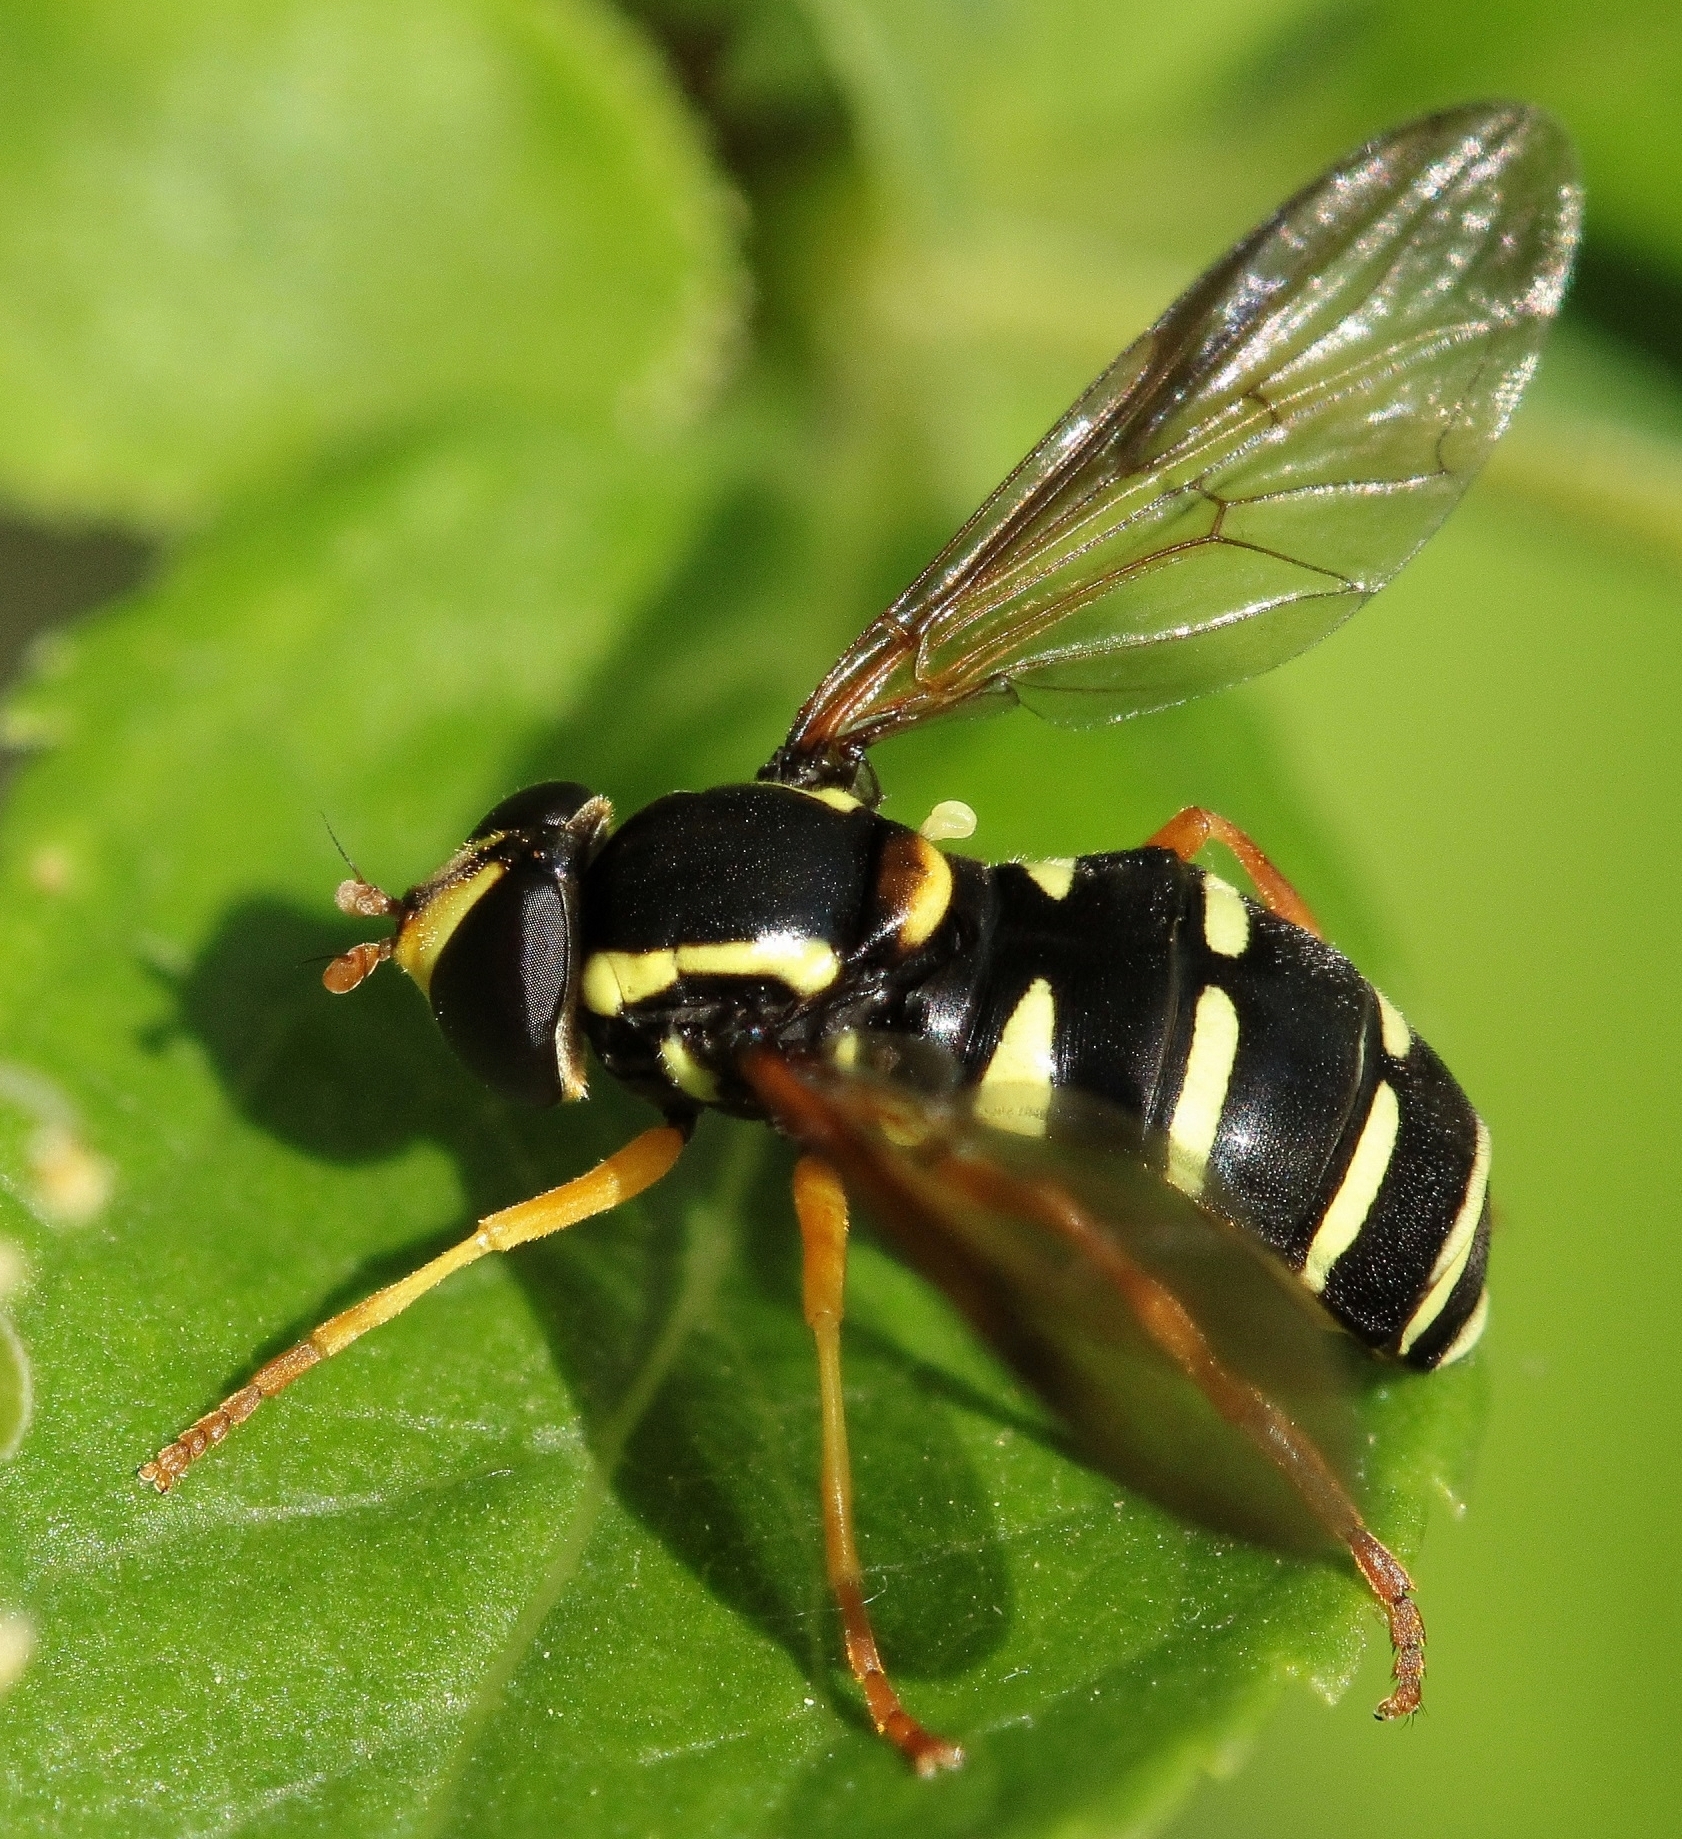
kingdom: Animalia
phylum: Arthropoda
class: Insecta
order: Diptera
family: Syrphidae
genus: Philhelius
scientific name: Philhelius citrofasciata
